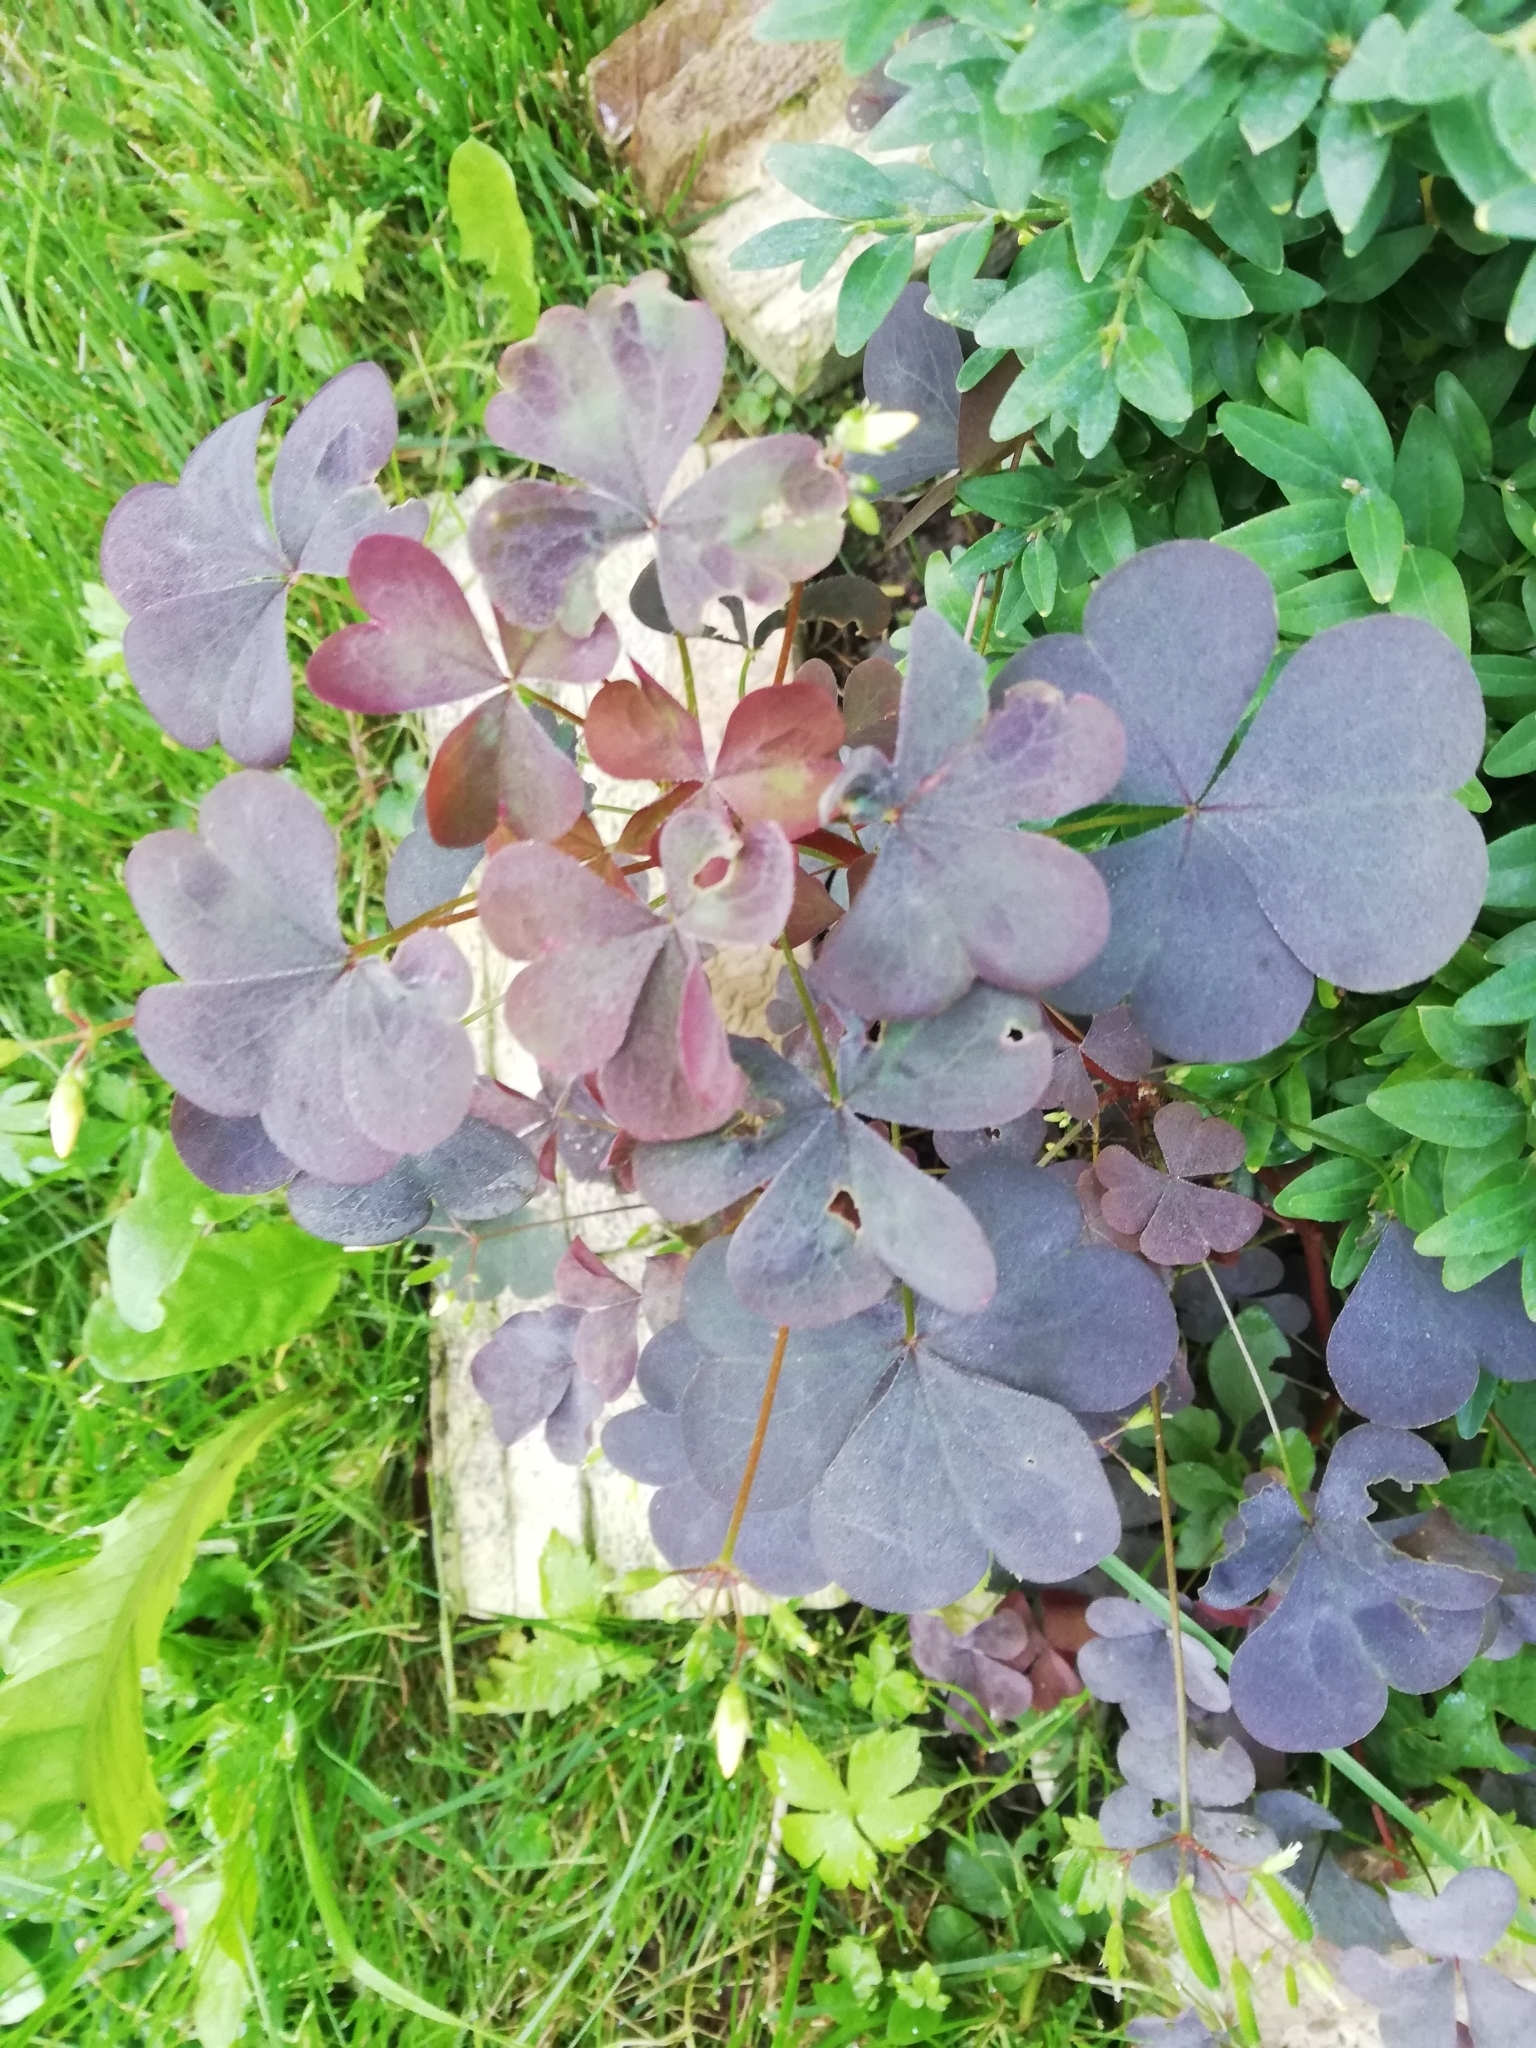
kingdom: Plantae
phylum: Tracheophyta
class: Magnoliopsida
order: Oxalidales
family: Oxalidaceae
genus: Oxalis
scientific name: Oxalis stricta
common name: Upright yellow-sorrel
